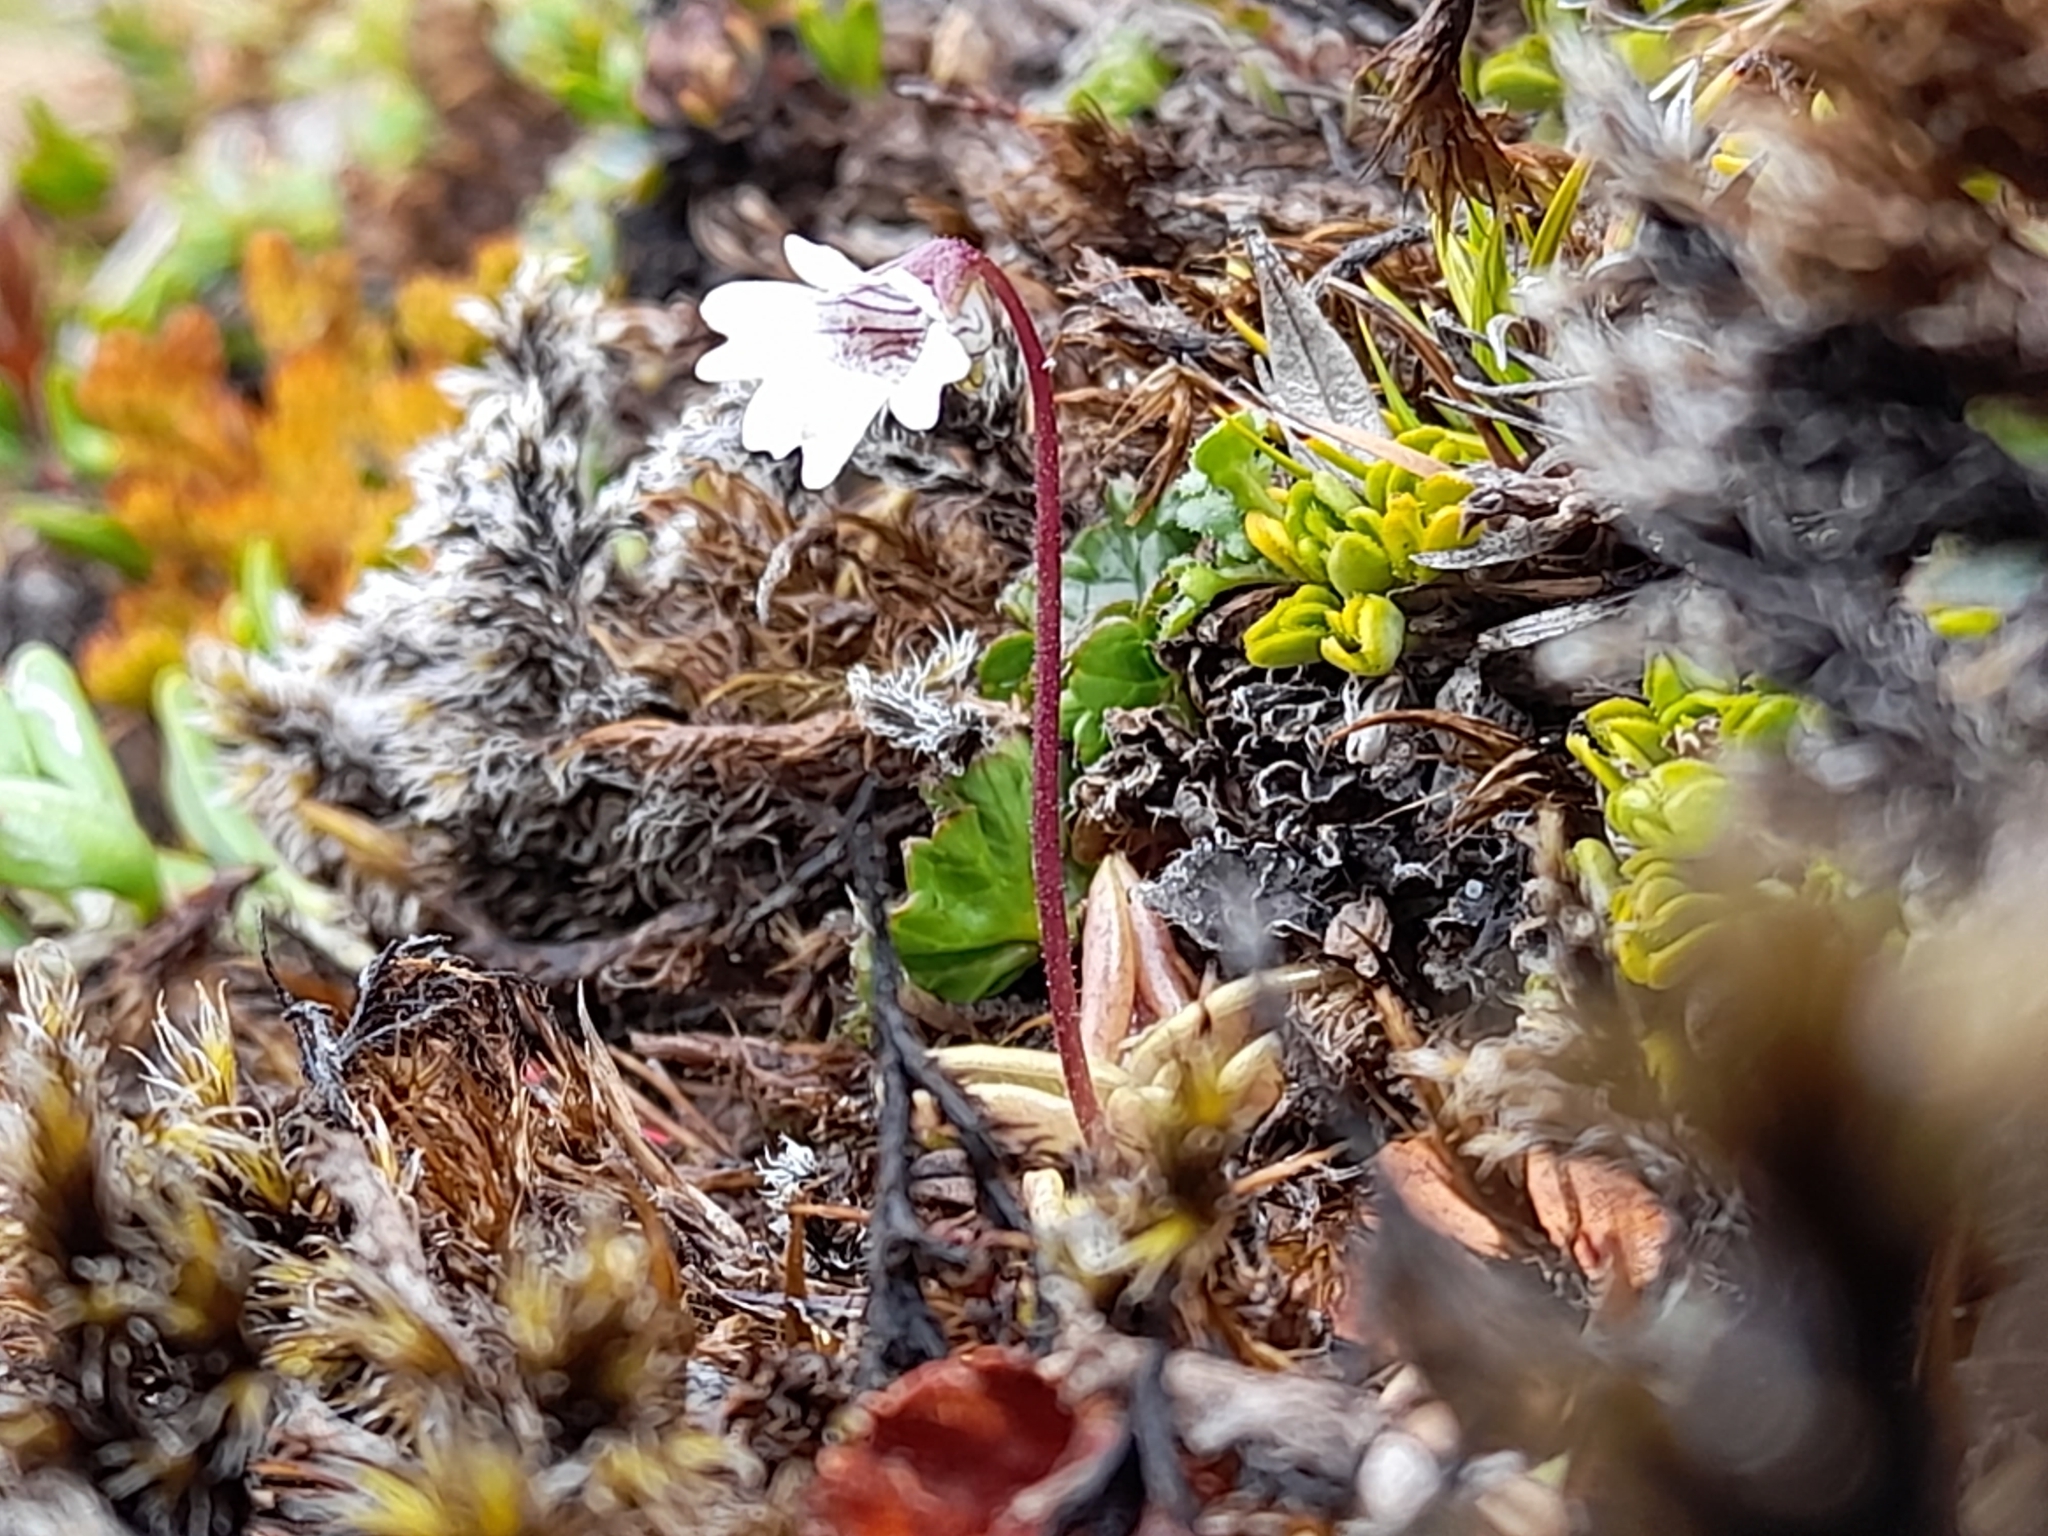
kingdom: Plantae
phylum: Tracheophyta
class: Magnoliopsida
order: Lamiales
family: Lentibulariaceae
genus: Pinguicula
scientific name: Pinguicula antarctica
